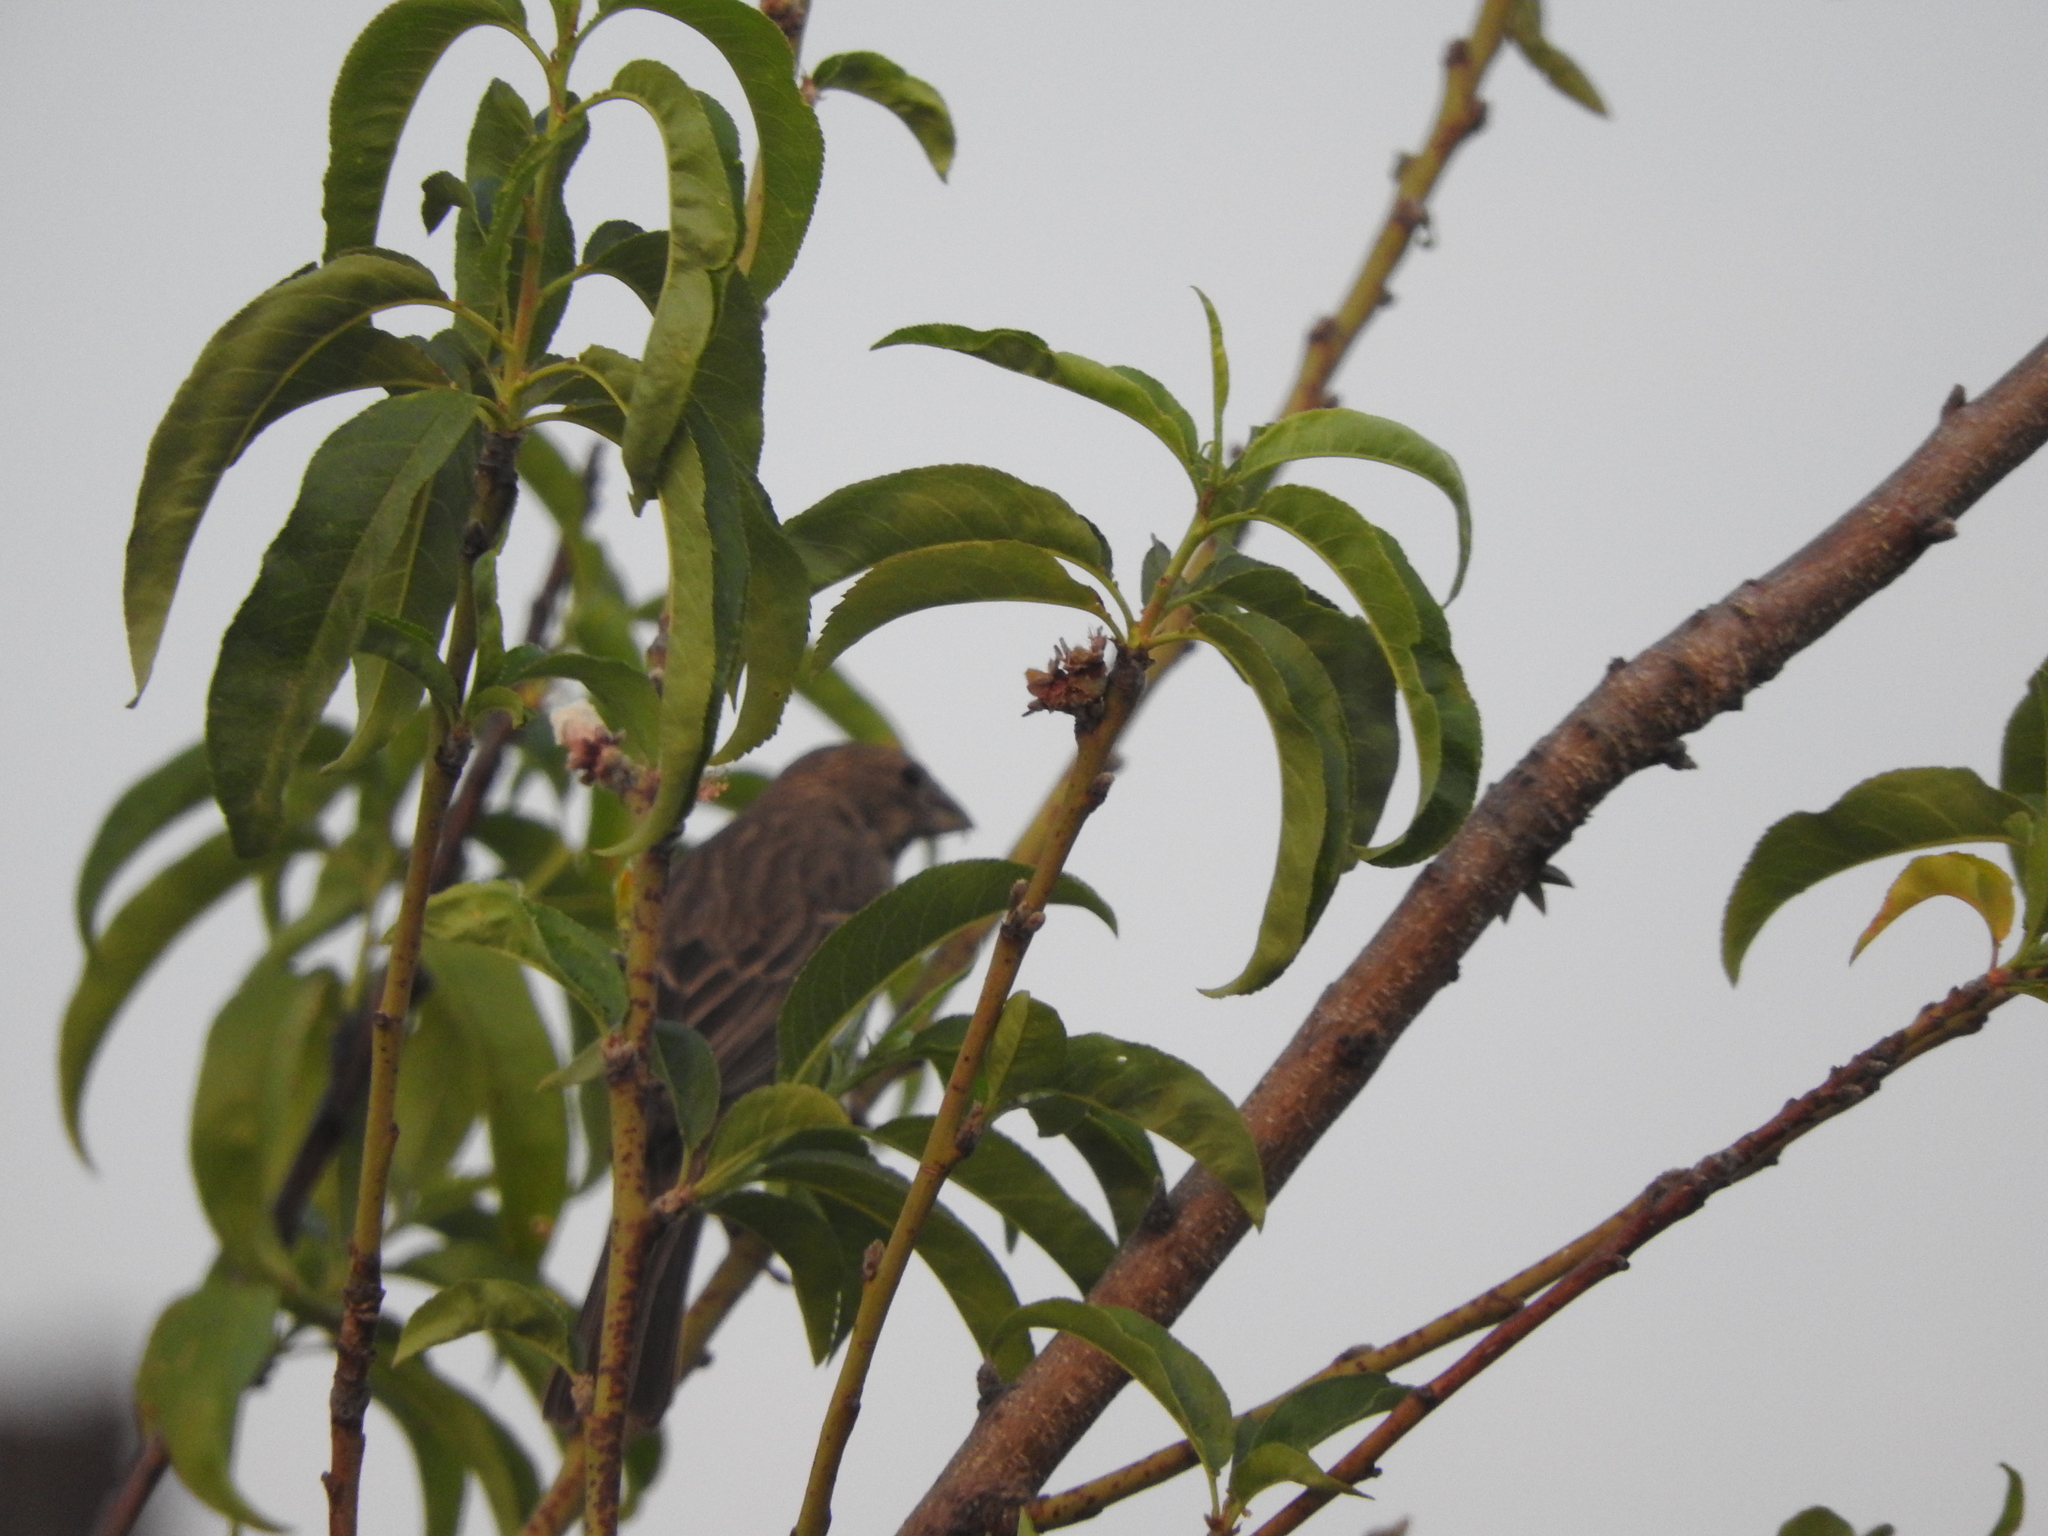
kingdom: Animalia
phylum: Chordata
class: Aves
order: Passeriformes
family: Fringillidae
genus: Haemorhous
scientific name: Haemorhous mexicanus
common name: House finch
